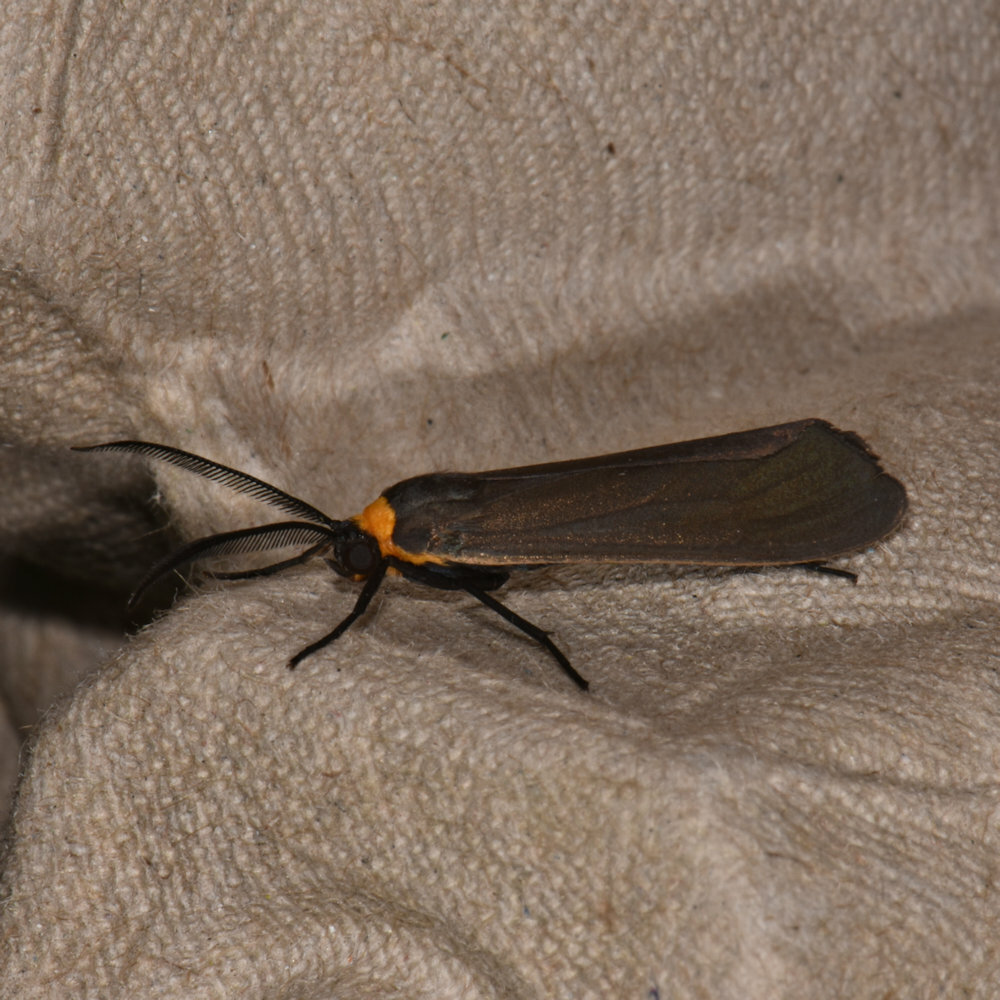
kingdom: Animalia
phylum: Arthropoda
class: Insecta
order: Lepidoptera
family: Erebidae
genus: Cisseps
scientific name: Cisseps fulvicollis
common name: Yellow-collared scape moth
